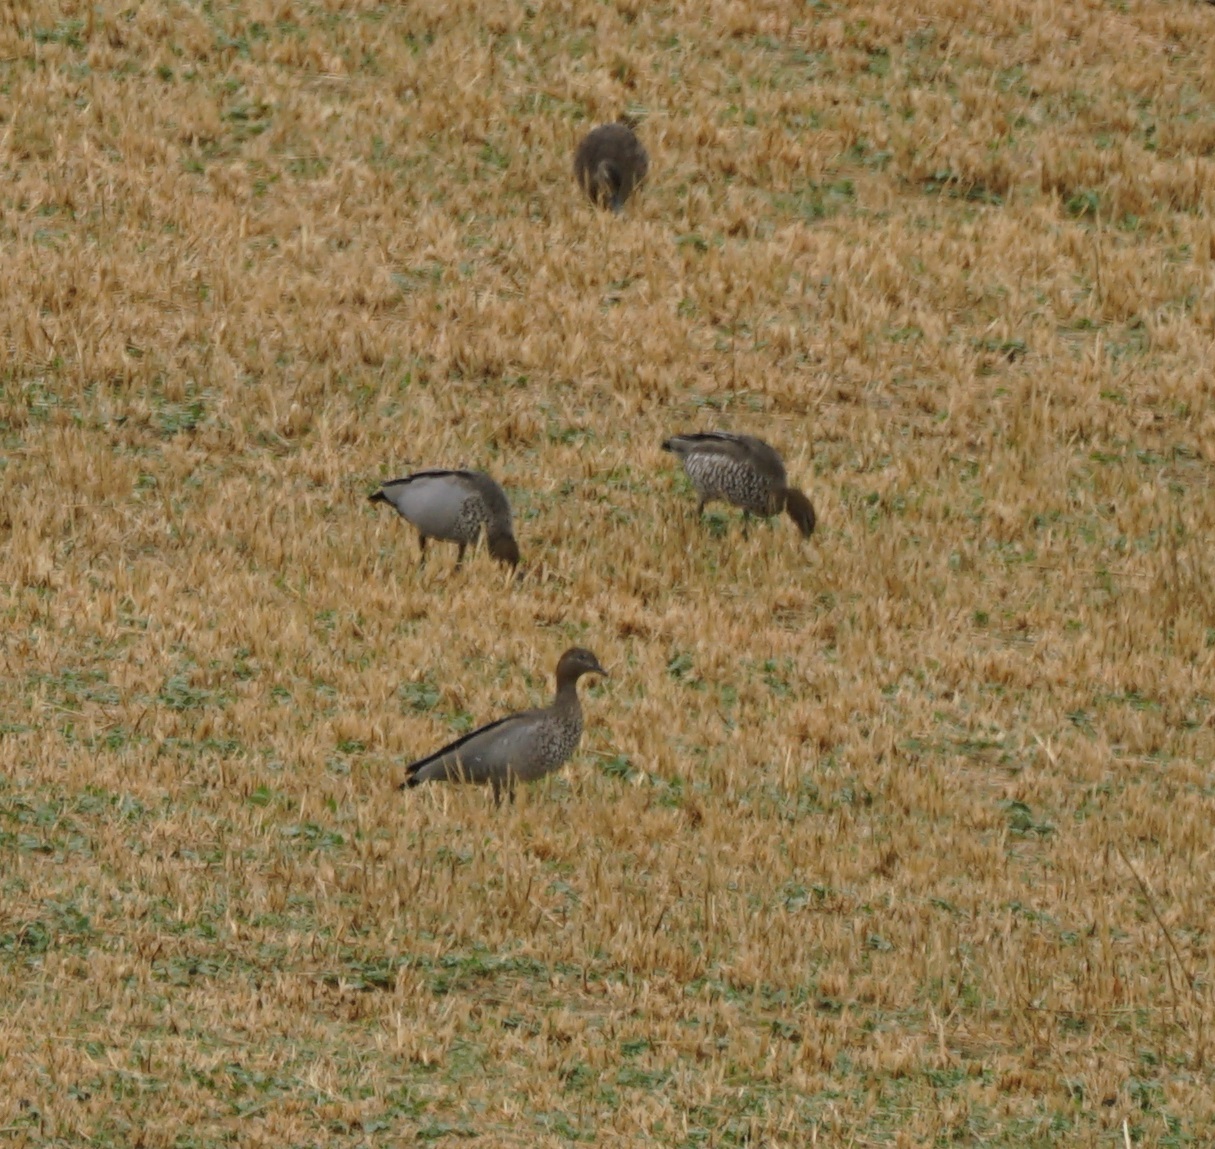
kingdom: Animalia
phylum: Chordata
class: Aves
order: Anseriformes
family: Anatidae
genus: Chenonetta
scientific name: Chenonetta jubata
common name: Maned duck
